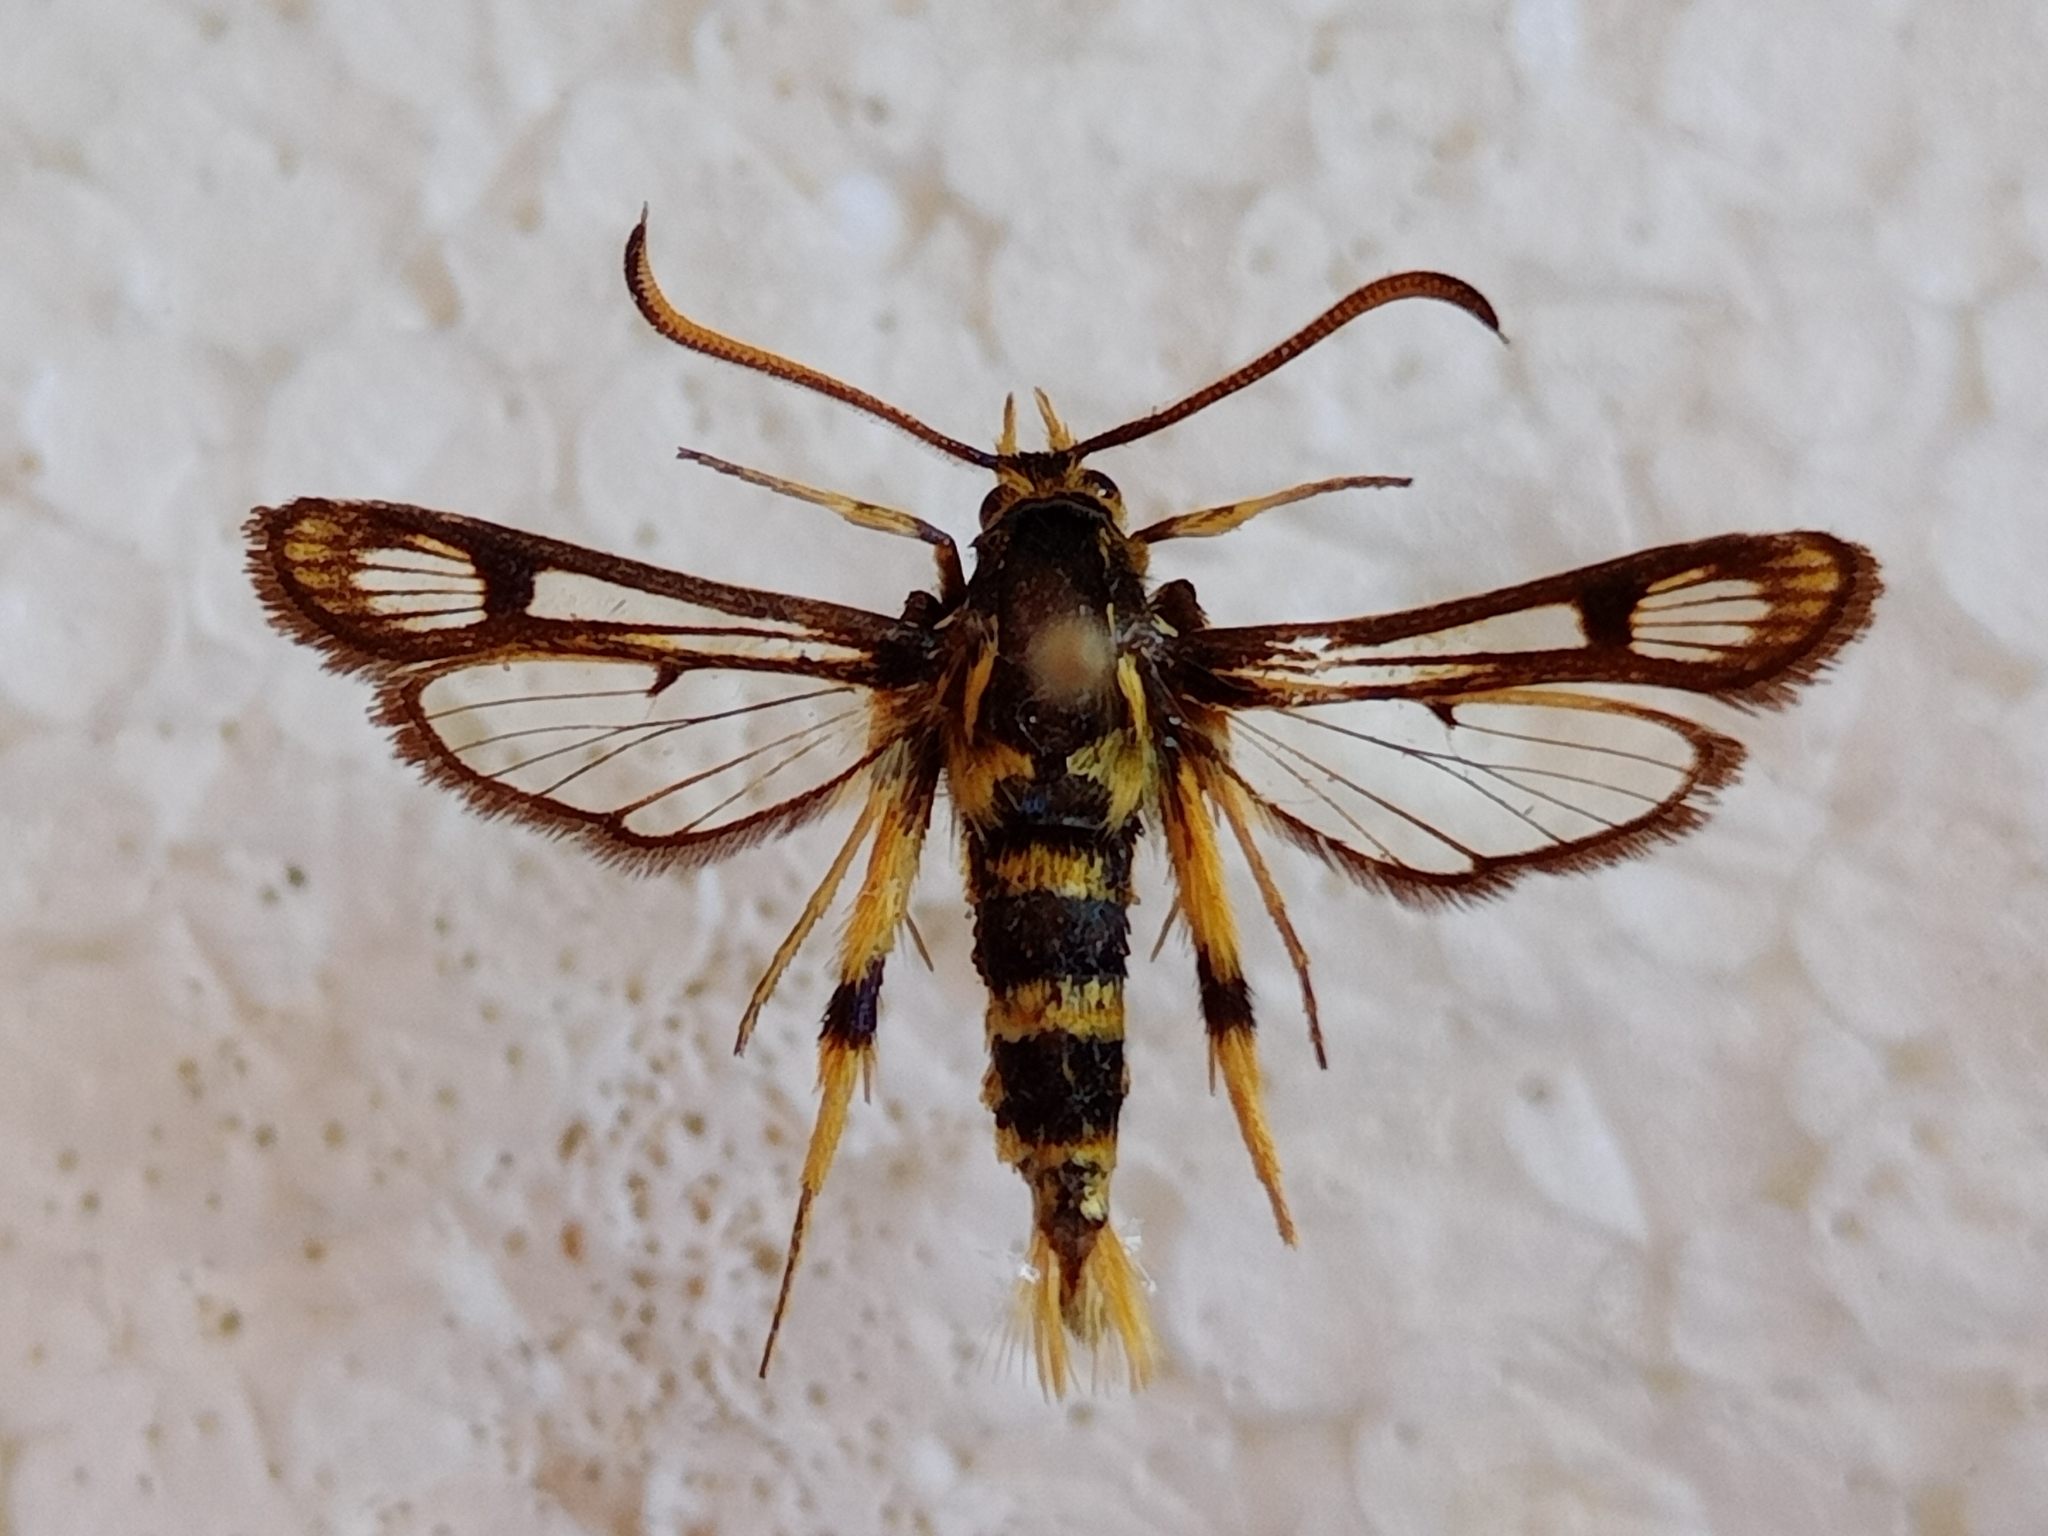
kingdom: Animalia
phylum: Arthropoda
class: Insecta
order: Lepidoptera
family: Sesiidae
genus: Chamaesphecia
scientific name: Chamaesphecia masariformis
